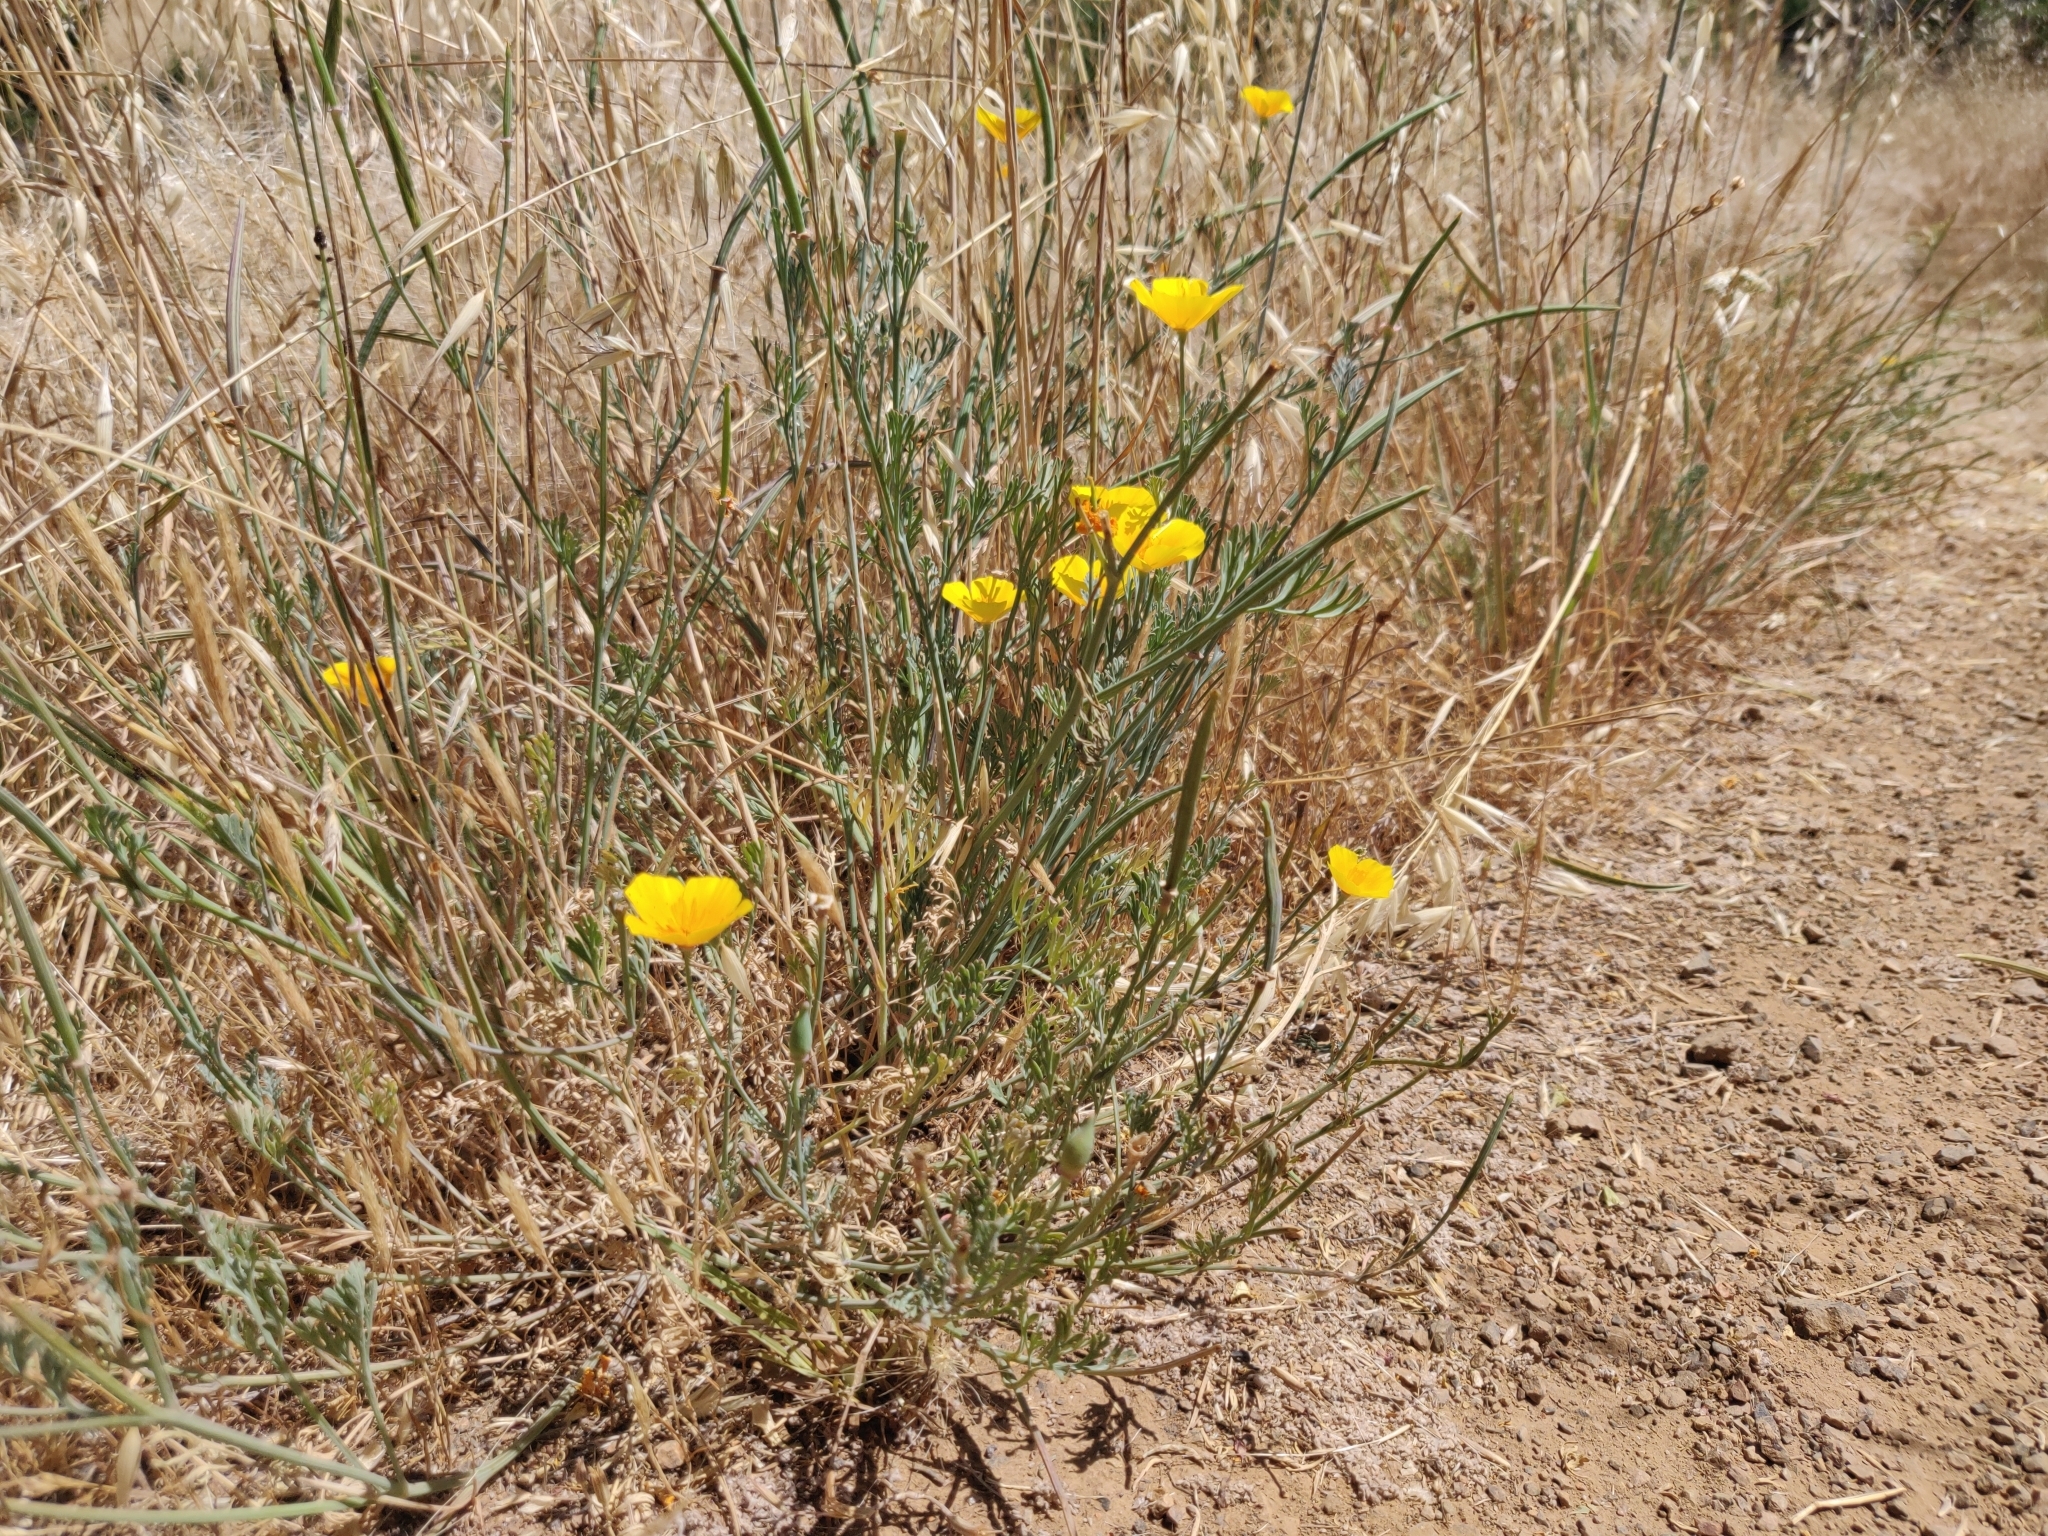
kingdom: Plantae
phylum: Tracheophyta
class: Magnoliopsida
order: Ranunculales
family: Papaveraceae
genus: Eschscholzia
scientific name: Eschscholzia californica
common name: California poppy
